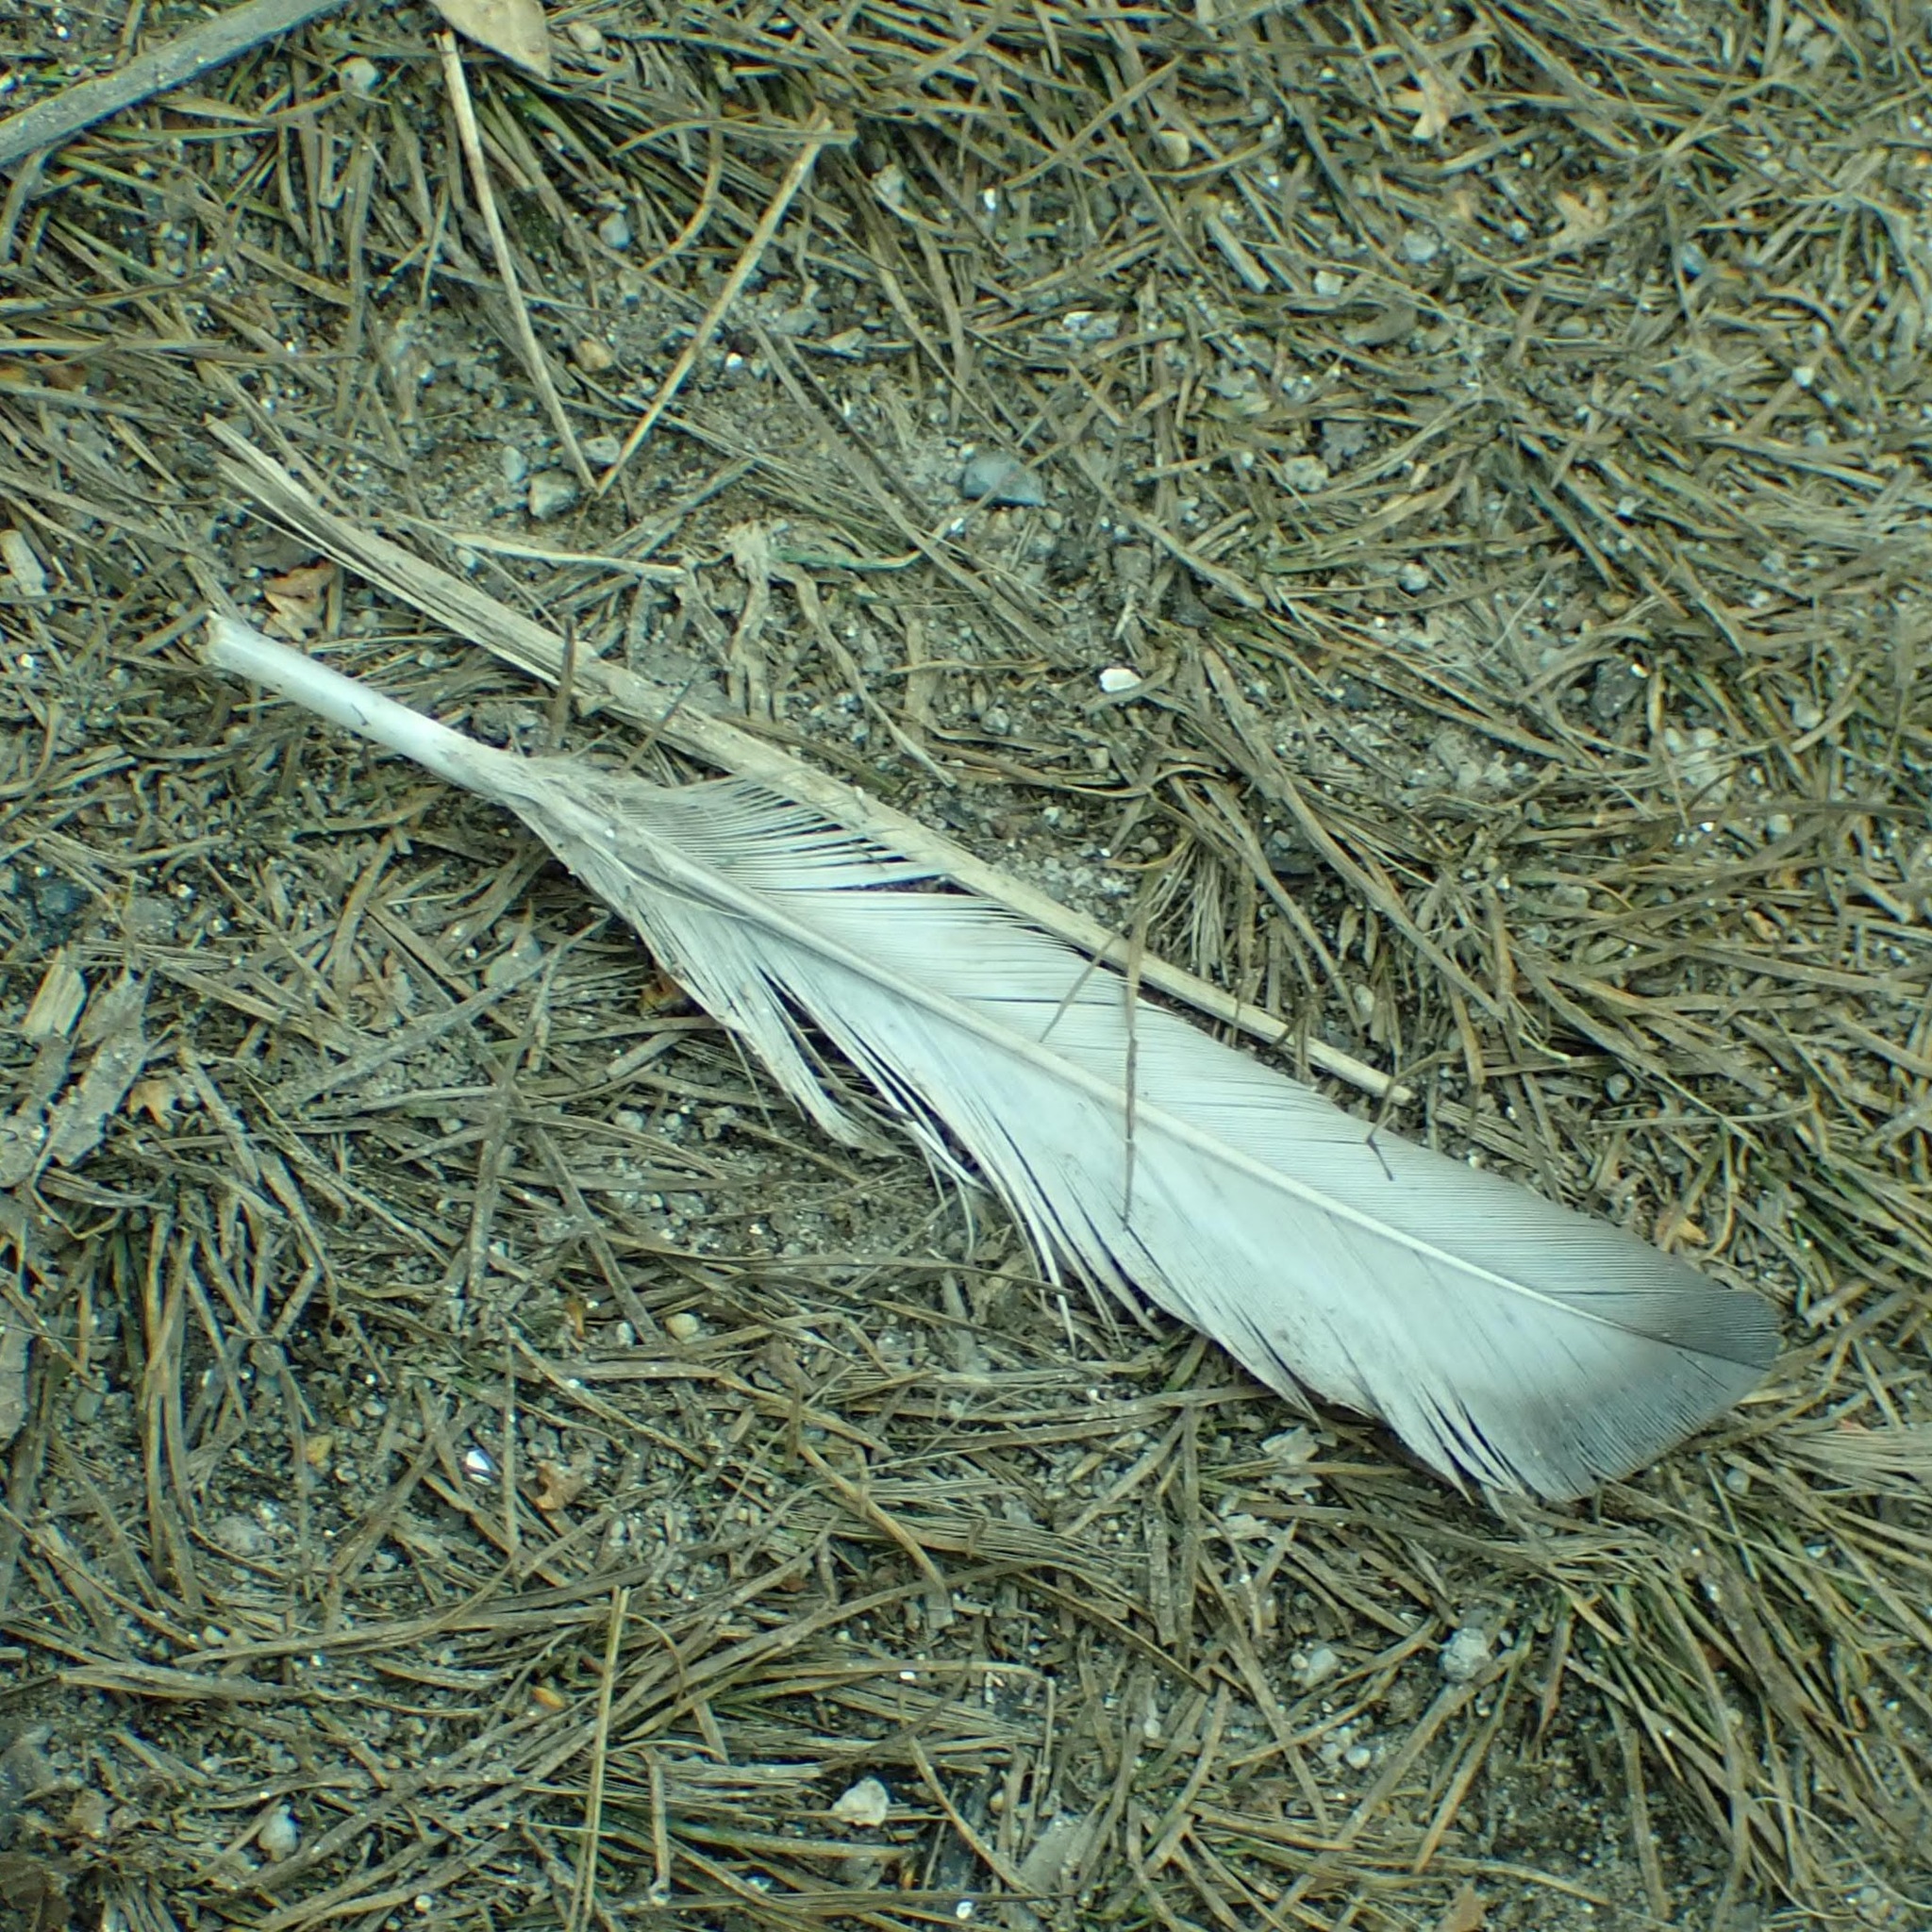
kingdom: Animalia
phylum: Chordata
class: Aves
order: Anseriformes
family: Anatidae
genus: Aythya
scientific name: Aythya collaris
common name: Ring-necked duck
